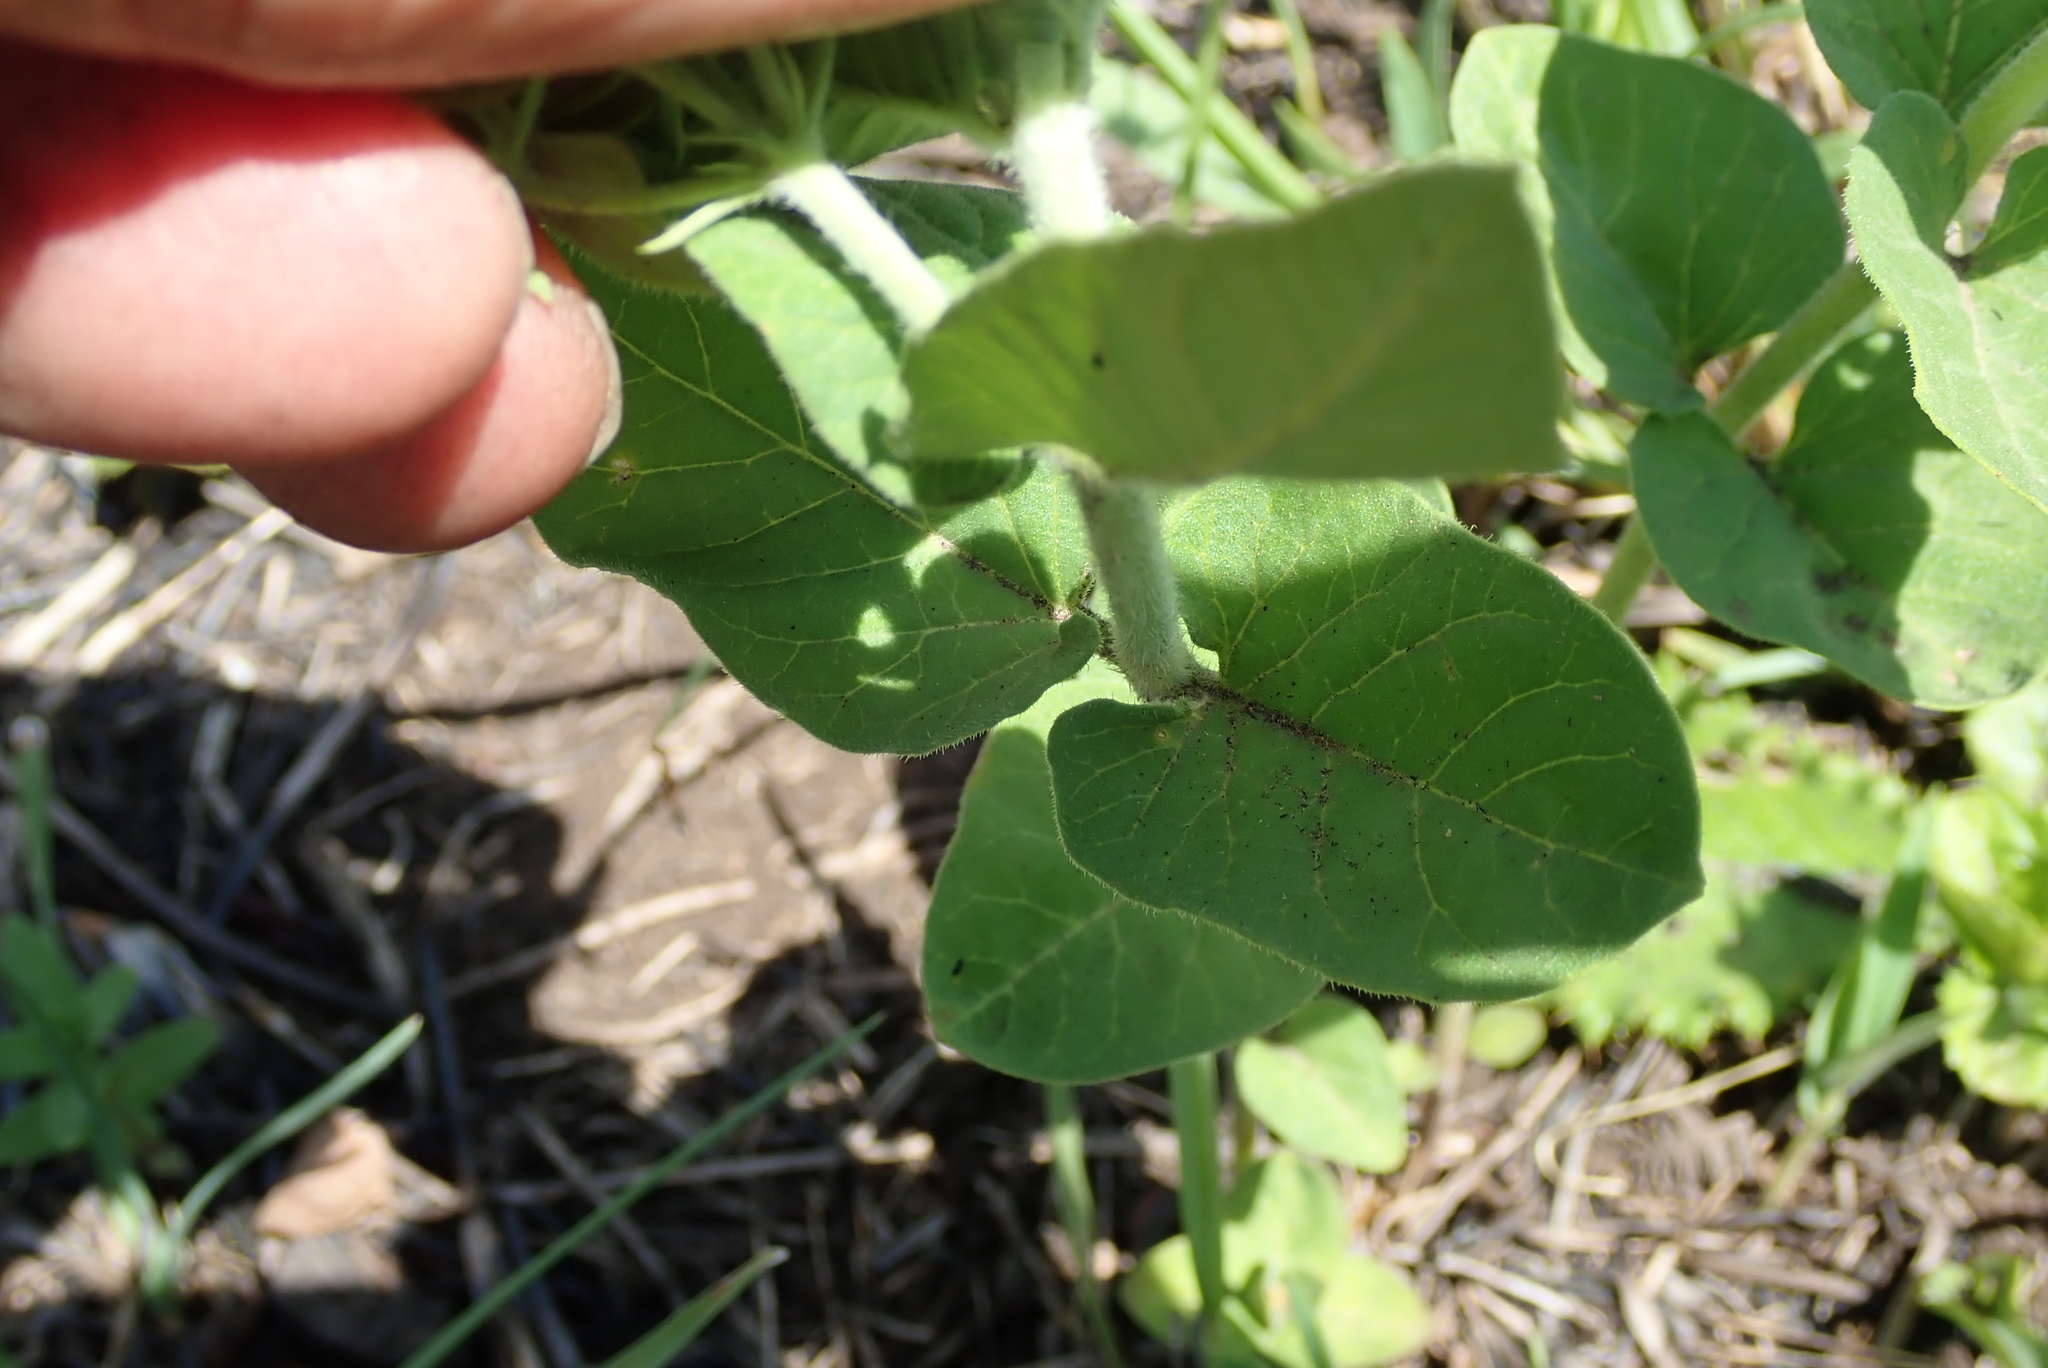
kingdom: Plantae
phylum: Tracheophyta
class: Magnoliopsida
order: Gentianales
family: Apocynaceae
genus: Schizoglossum
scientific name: Schizoglossum cordifolium
